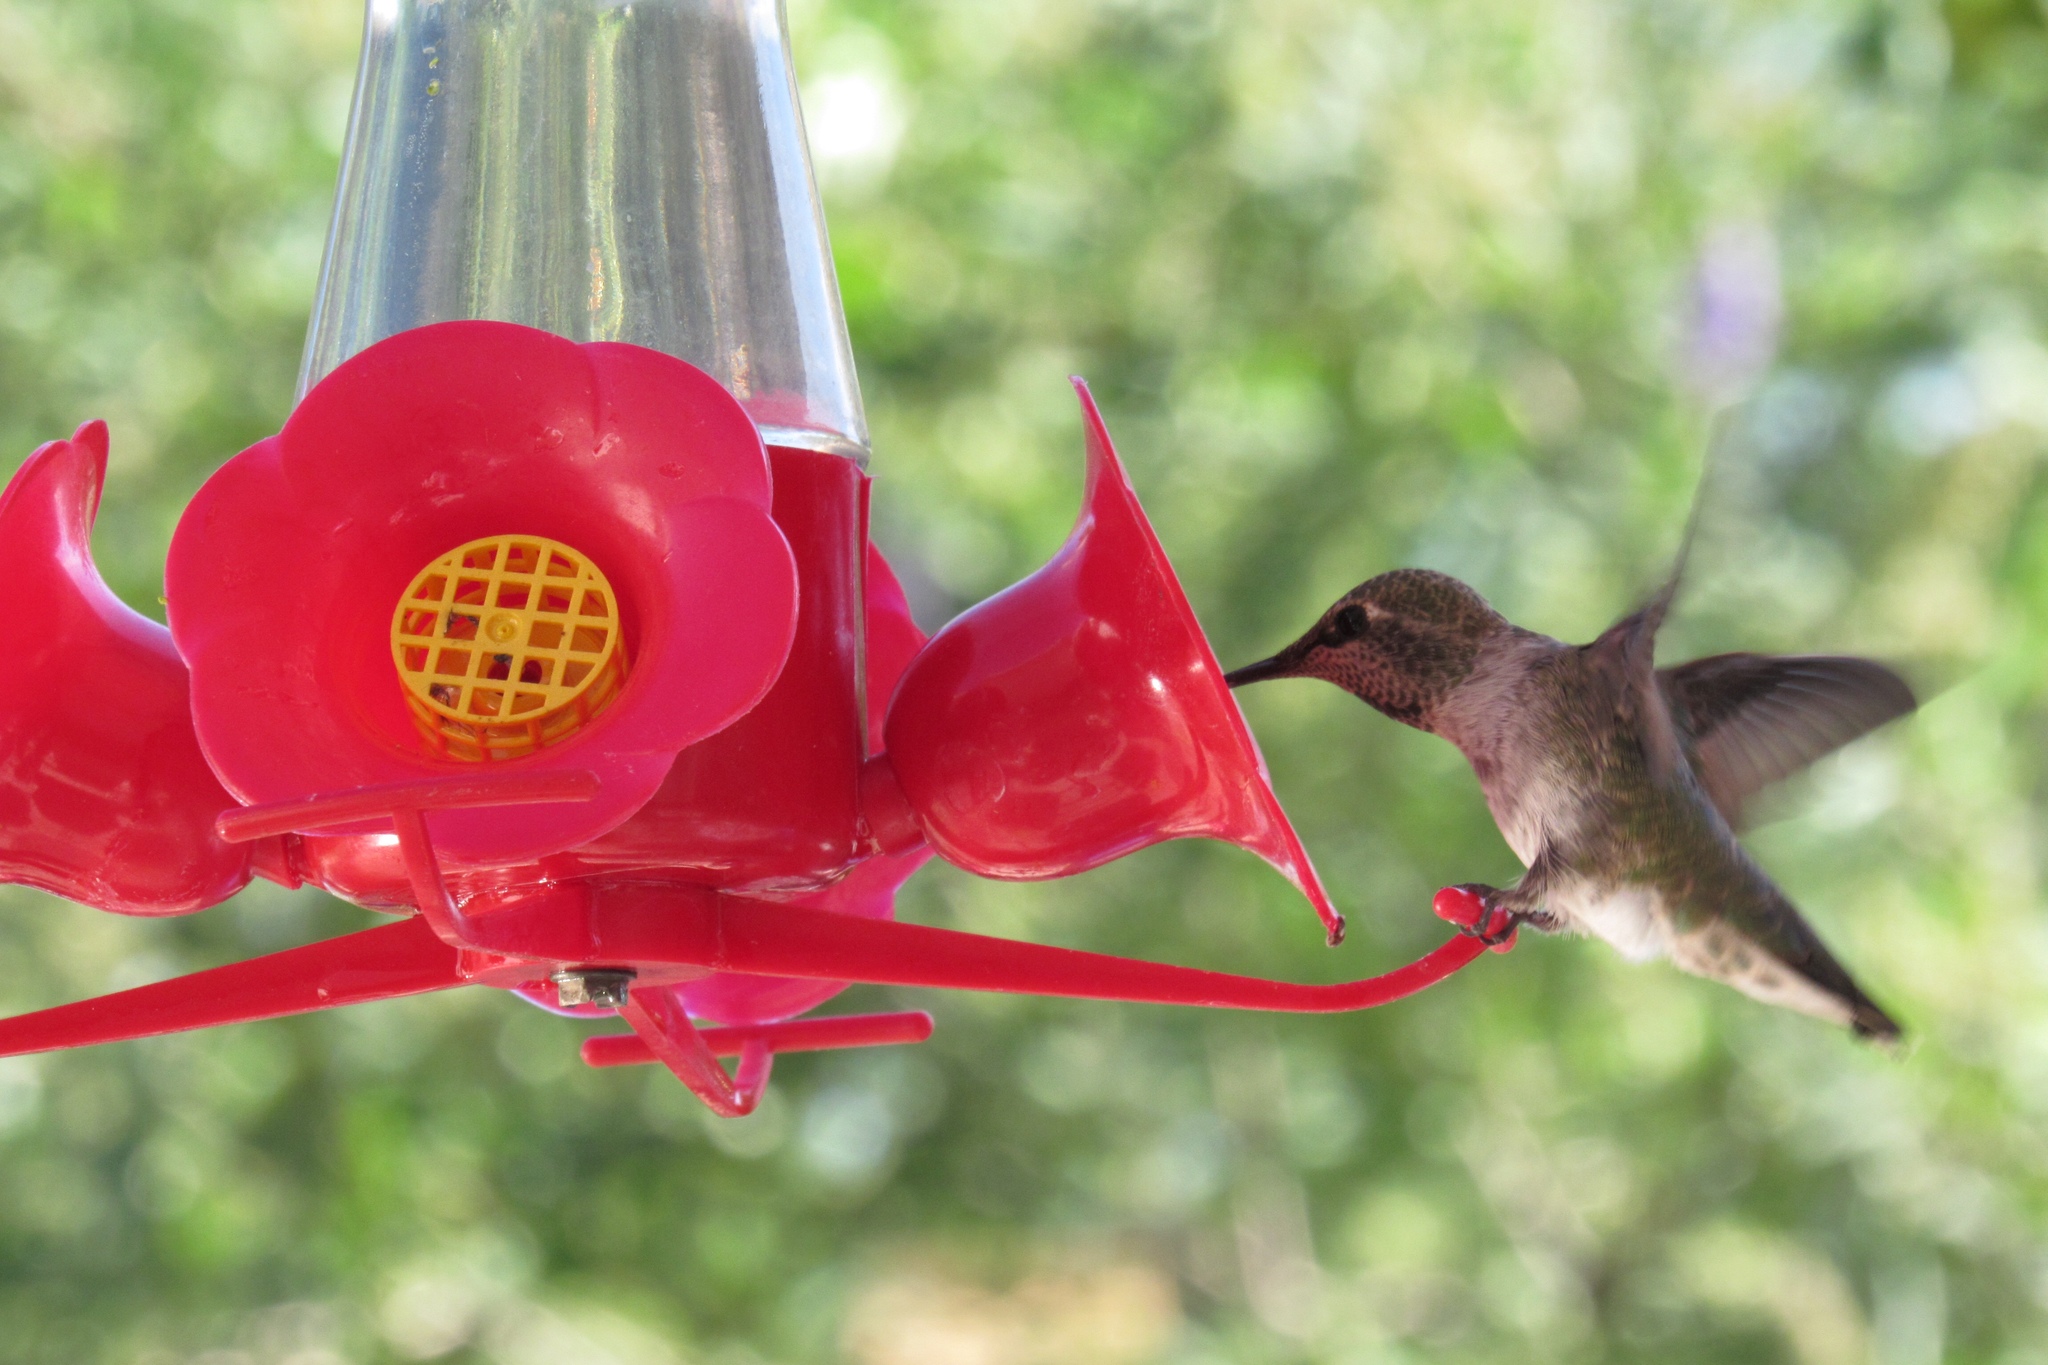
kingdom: Animalia
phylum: Chordata
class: Aves
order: Apodiformes
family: Trochilidae
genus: Calypte
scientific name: Calypte anna
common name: Anna's hummingbird
